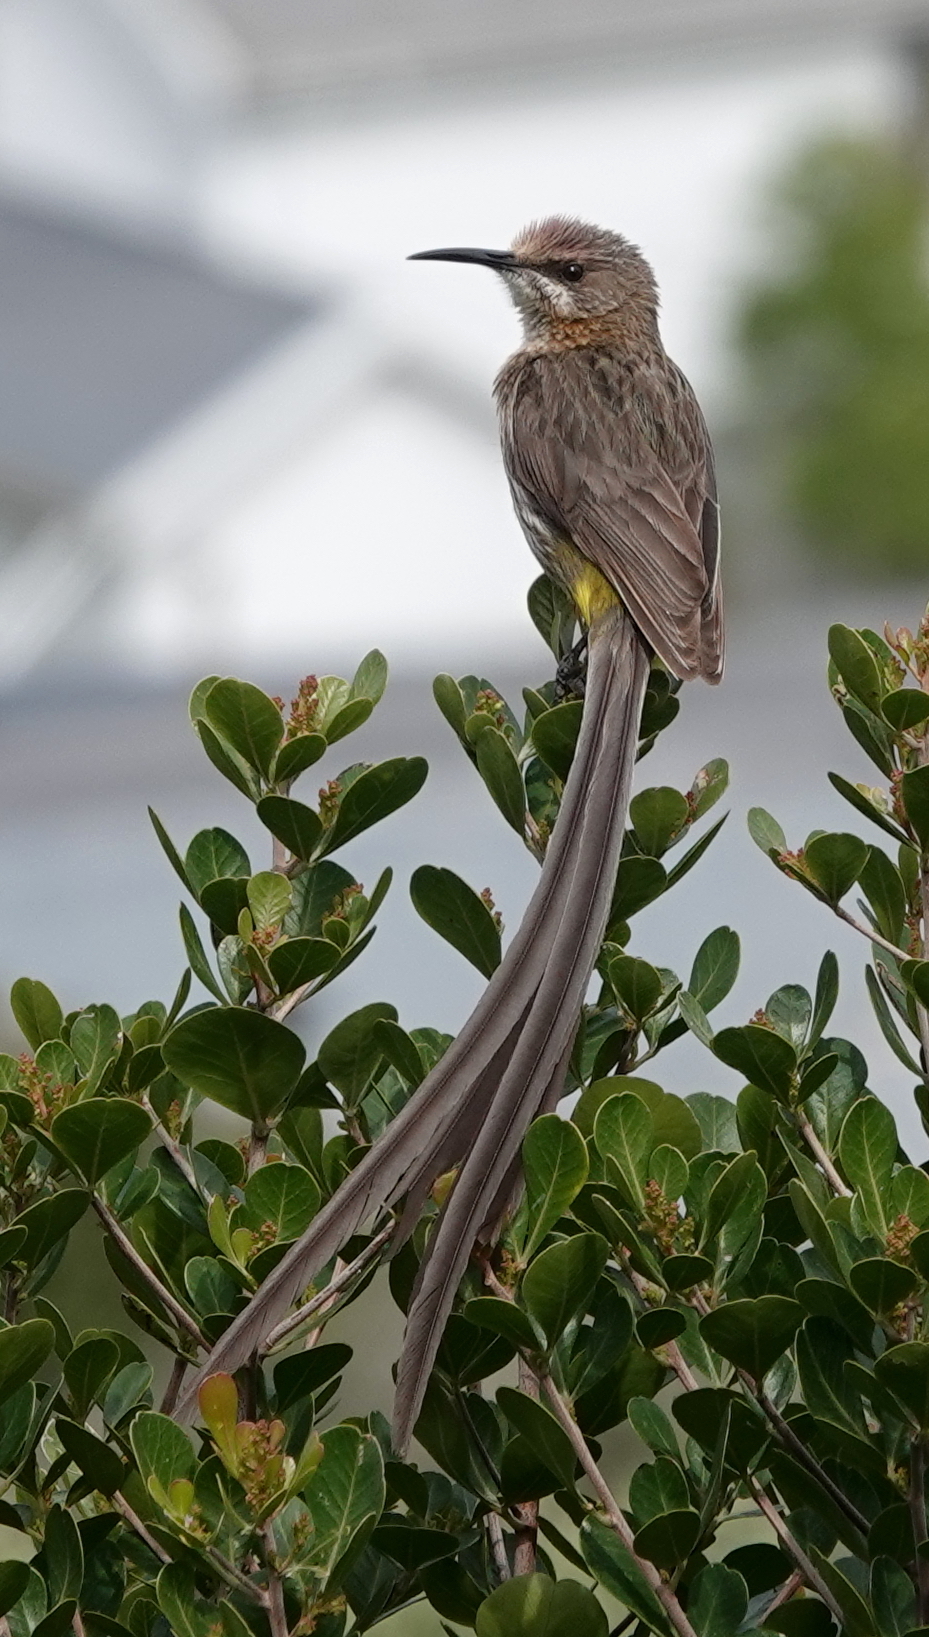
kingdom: Animalia
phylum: Chordata
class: Aves
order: Passeriformes
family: Promeropidae
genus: Promerops
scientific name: Promerops cafer
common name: Cape sugarbird
